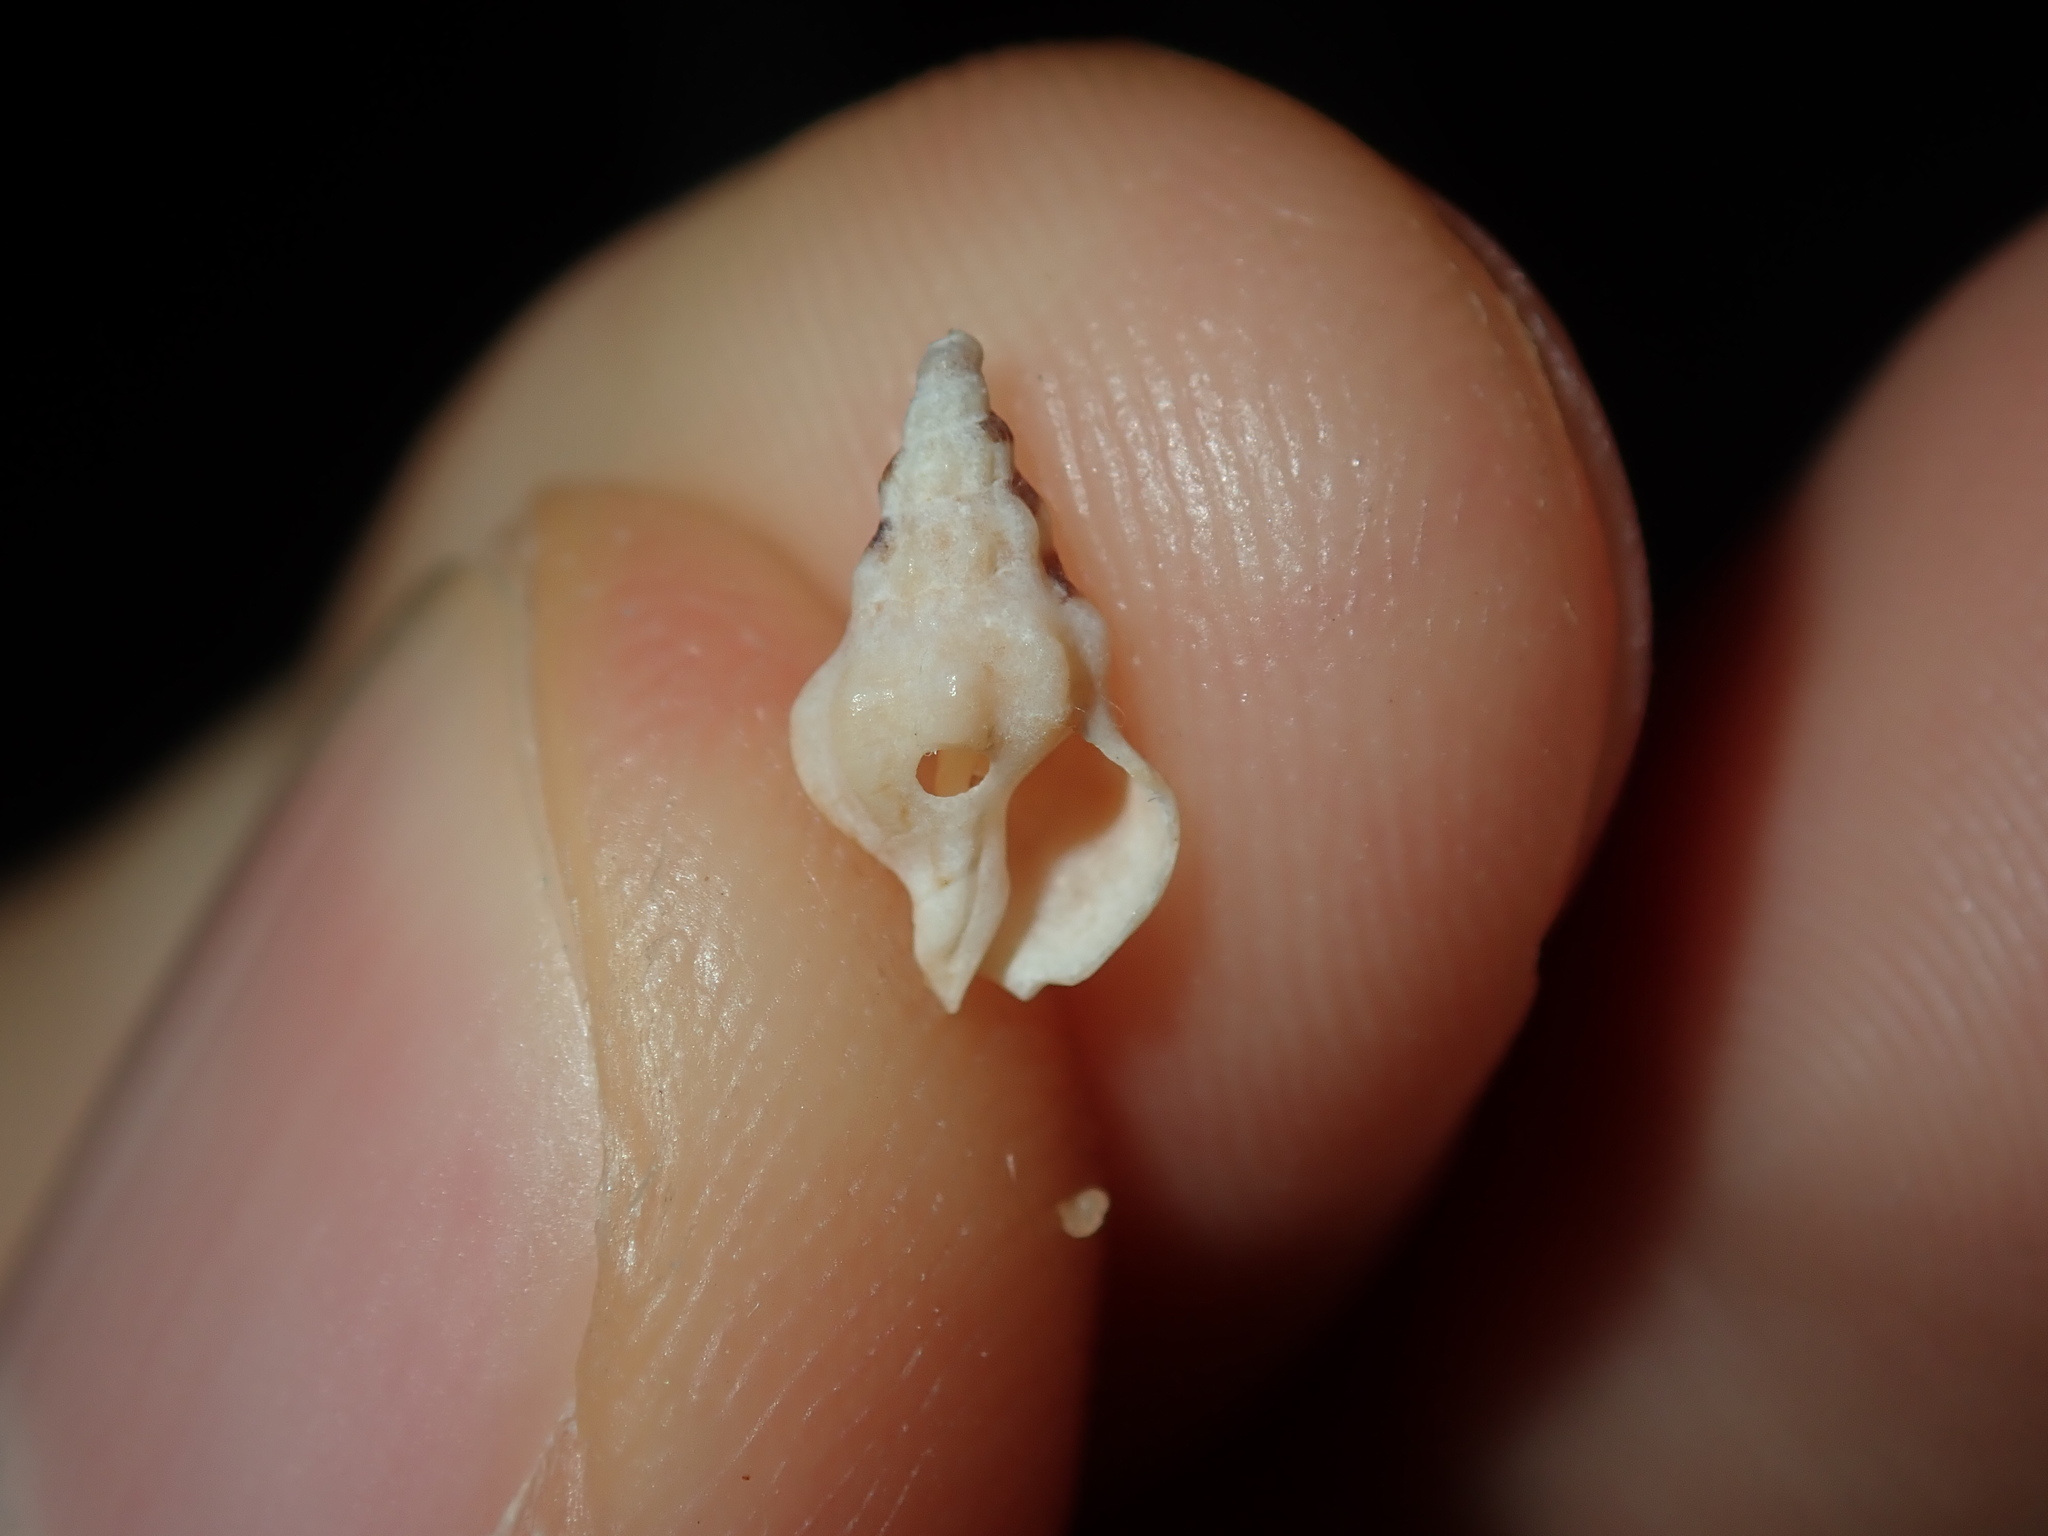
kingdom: Animalia
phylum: Mollusca
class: Gastropoda
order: Neogastropoda
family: Cominellidae
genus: Cominella
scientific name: Cominella eburnea
